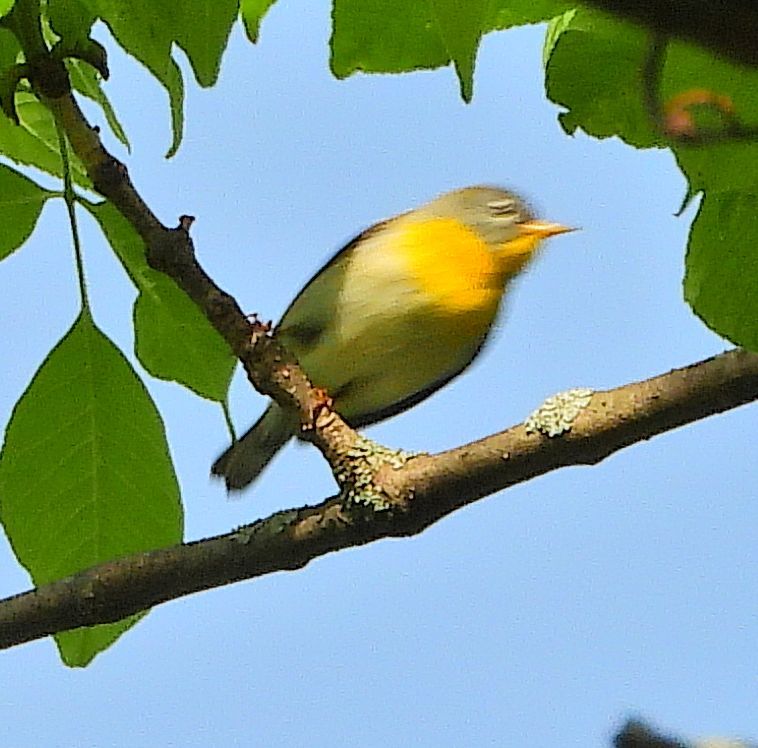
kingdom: Animalia
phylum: Chordata
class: Aves
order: Passeriformes
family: Parulidae
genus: Setophaga
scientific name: Setophaga americana
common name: Northern parula
